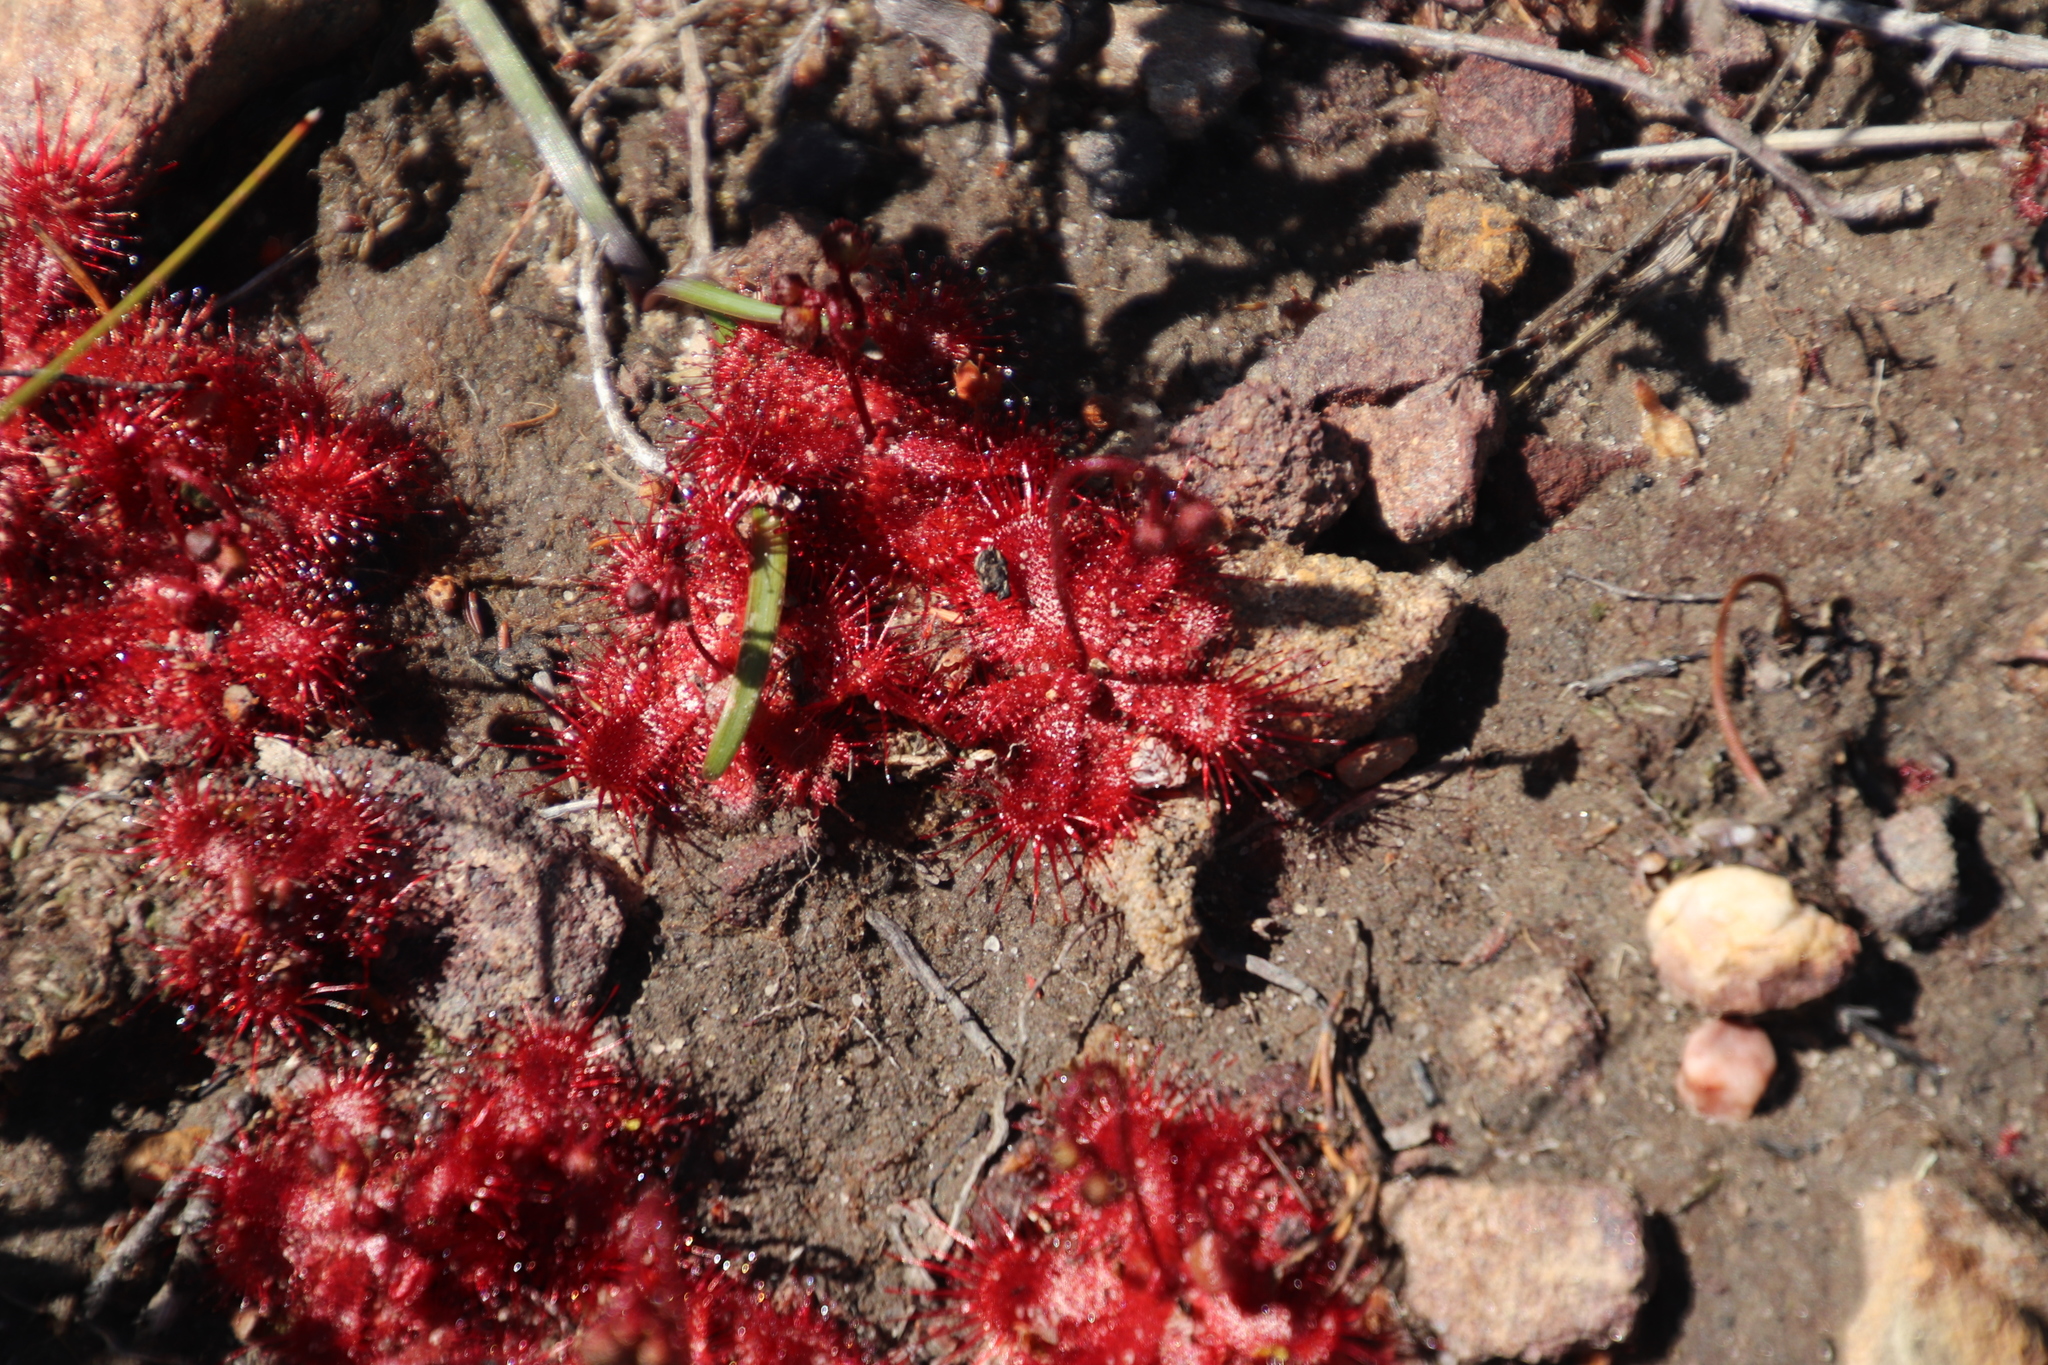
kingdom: Plantae
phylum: Tracheophyta
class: Magnoliopsida
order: Caryophyllales
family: Droseraceae
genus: Drosera
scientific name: Drosera trinervia
